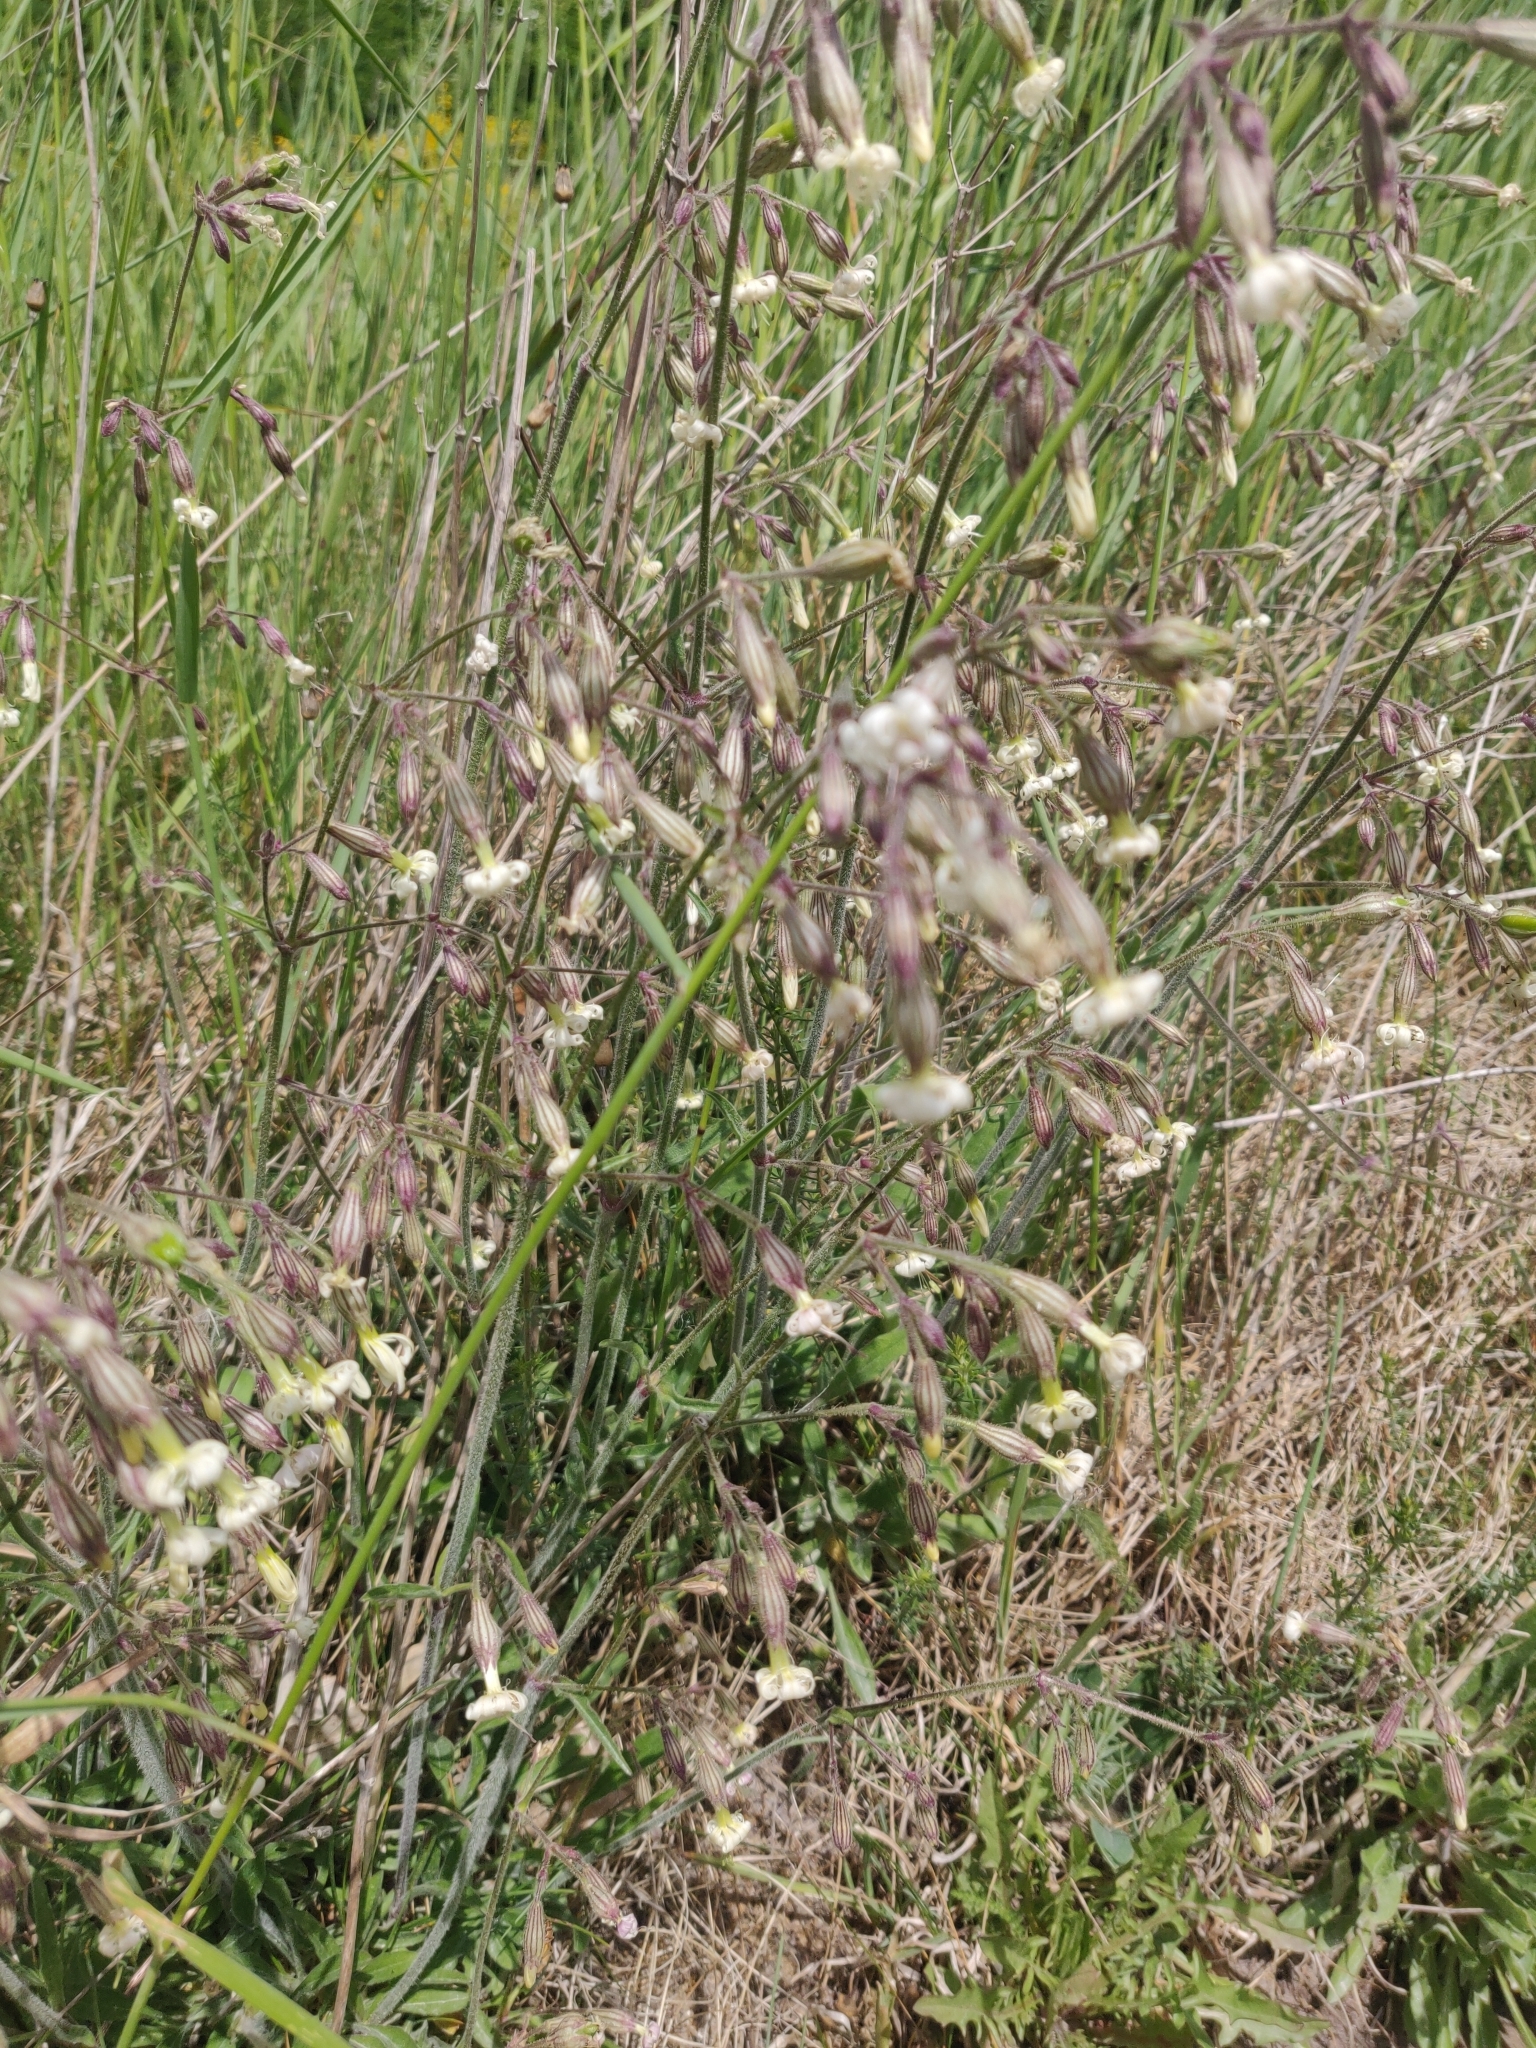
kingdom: Plantae
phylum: Tracheophyta
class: Magnoliopsida
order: Caryophyllales
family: Caryophyllaceae
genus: Silene
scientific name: Silene nutans
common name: Nottingham catchfly
